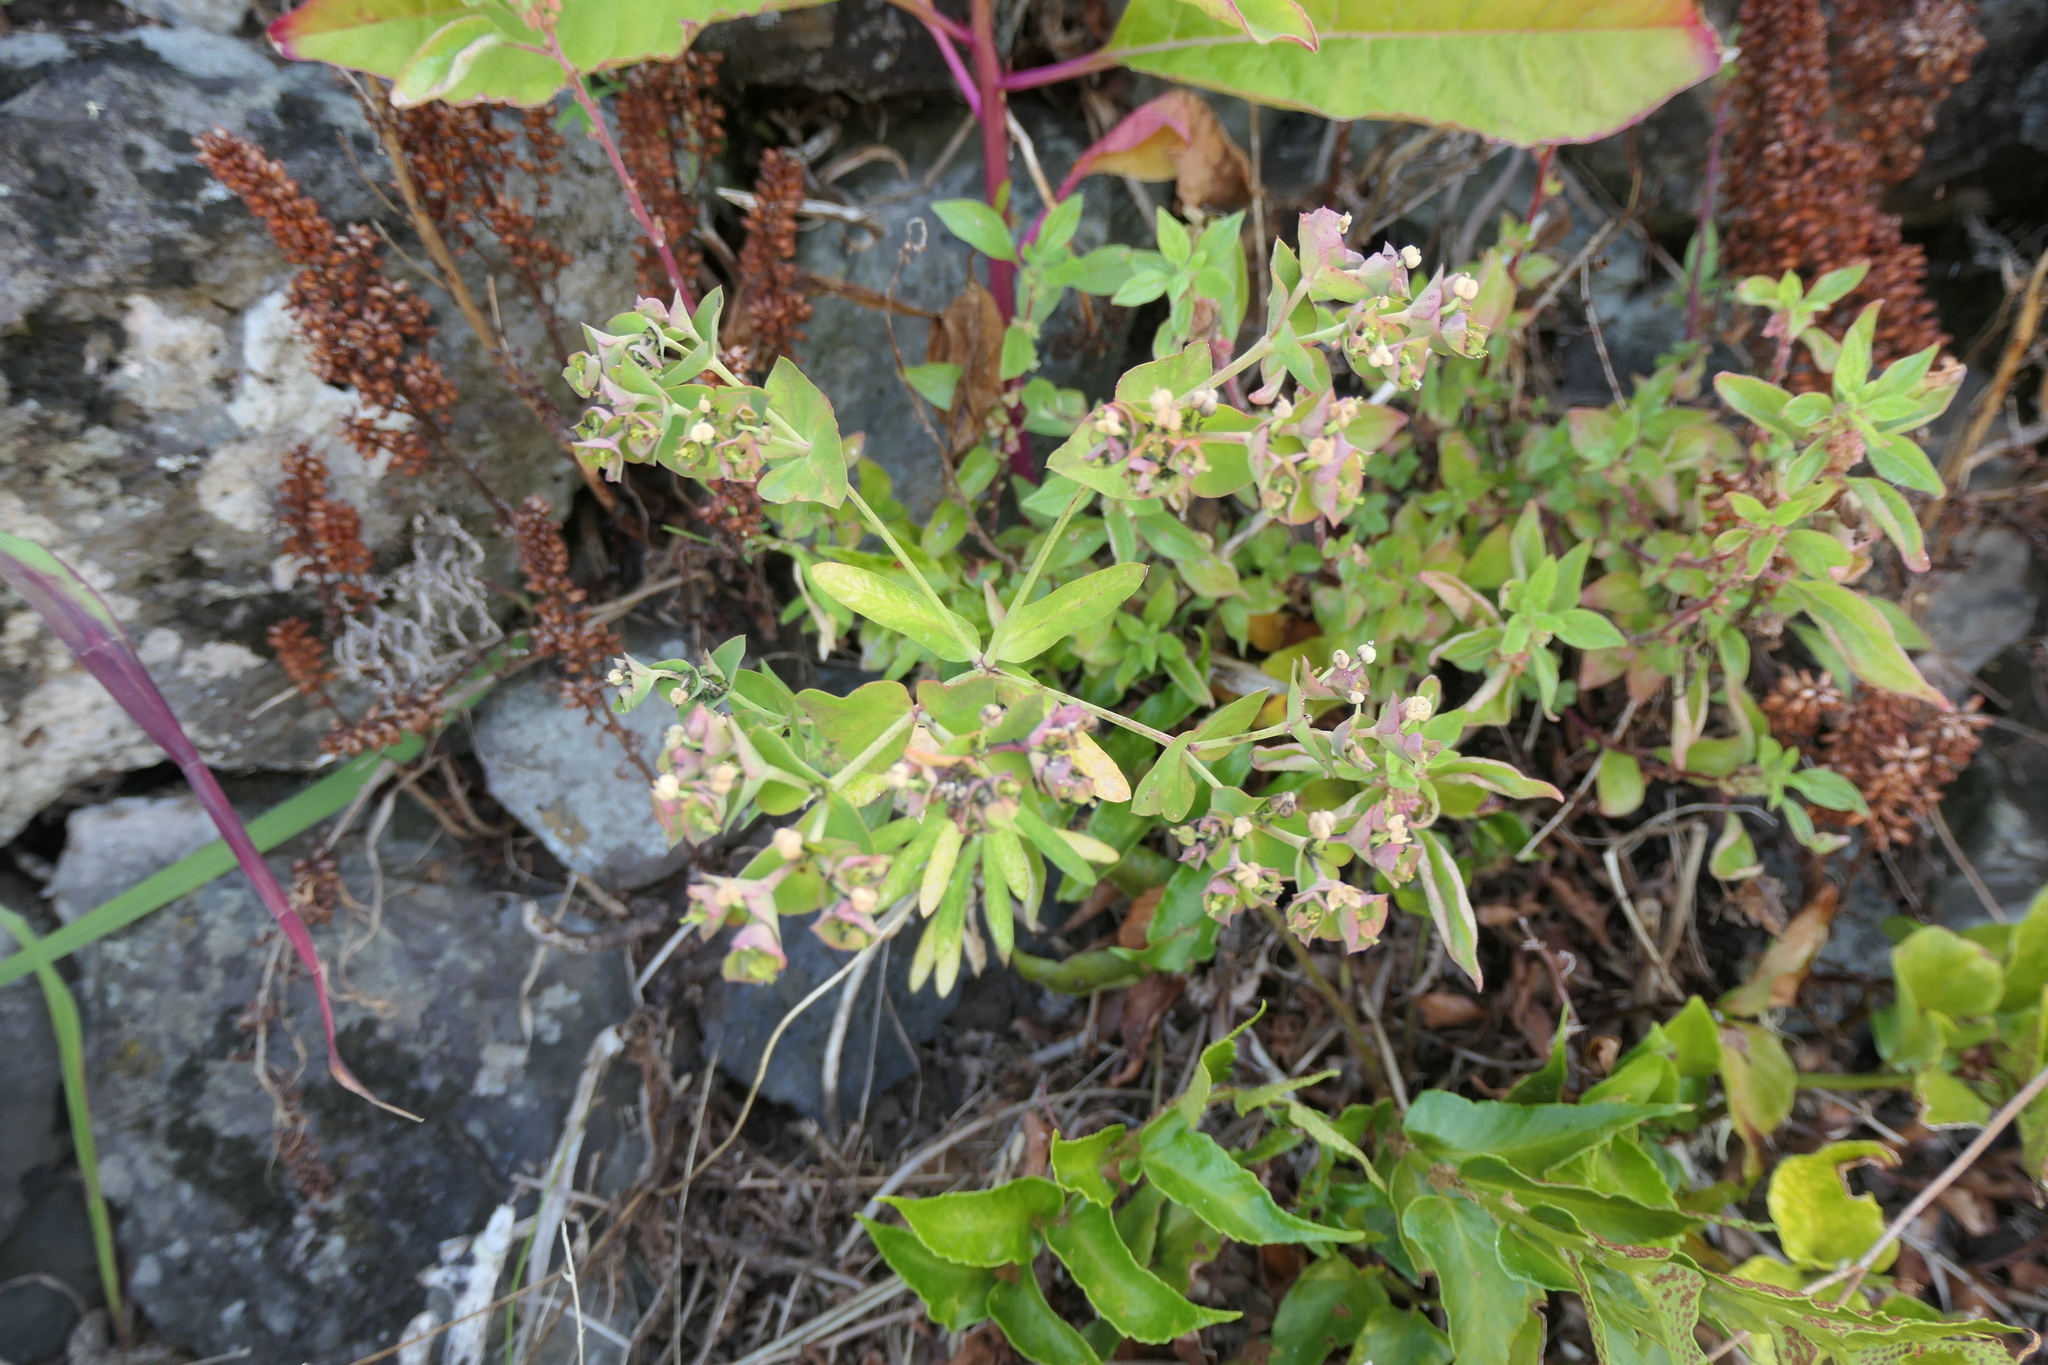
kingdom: Plantae
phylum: Tracheophyta
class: Magnoliopsida
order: Malpighiales
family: Euphorbiaceae
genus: Euphorbia
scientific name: Euphorbia azorica
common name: Erva-leitera
